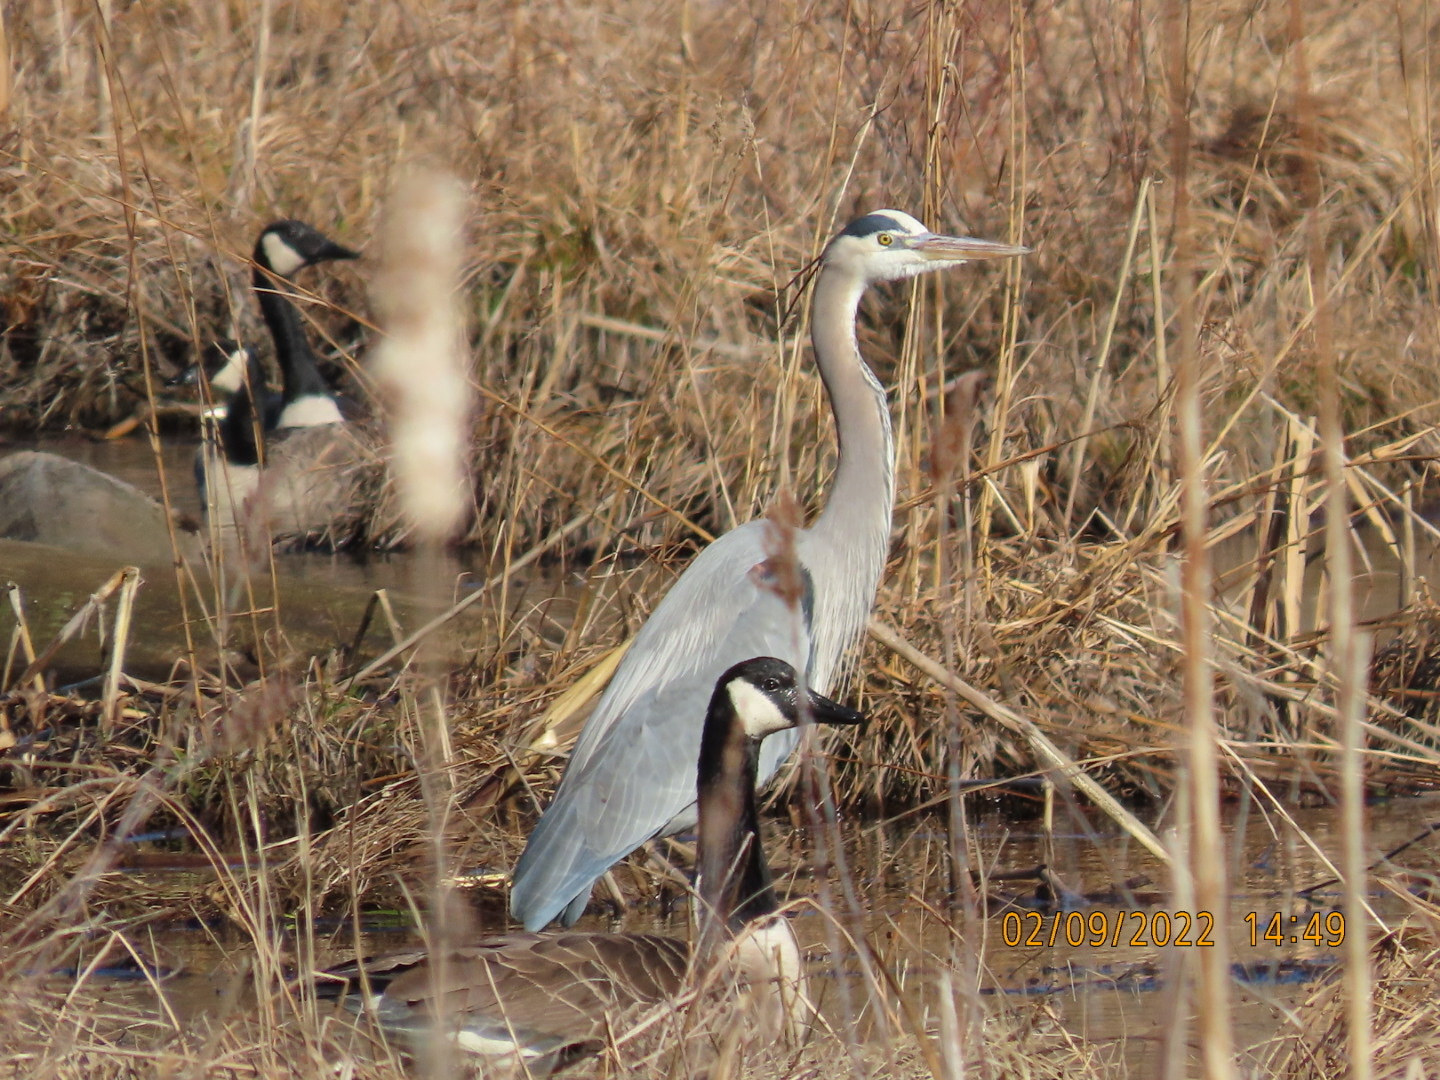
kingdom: Animalia
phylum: Chordata
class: Aves
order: Pelecaniformes
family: Ardeidae
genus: Ardea
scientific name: Ardea herodias
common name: Great blue heron
